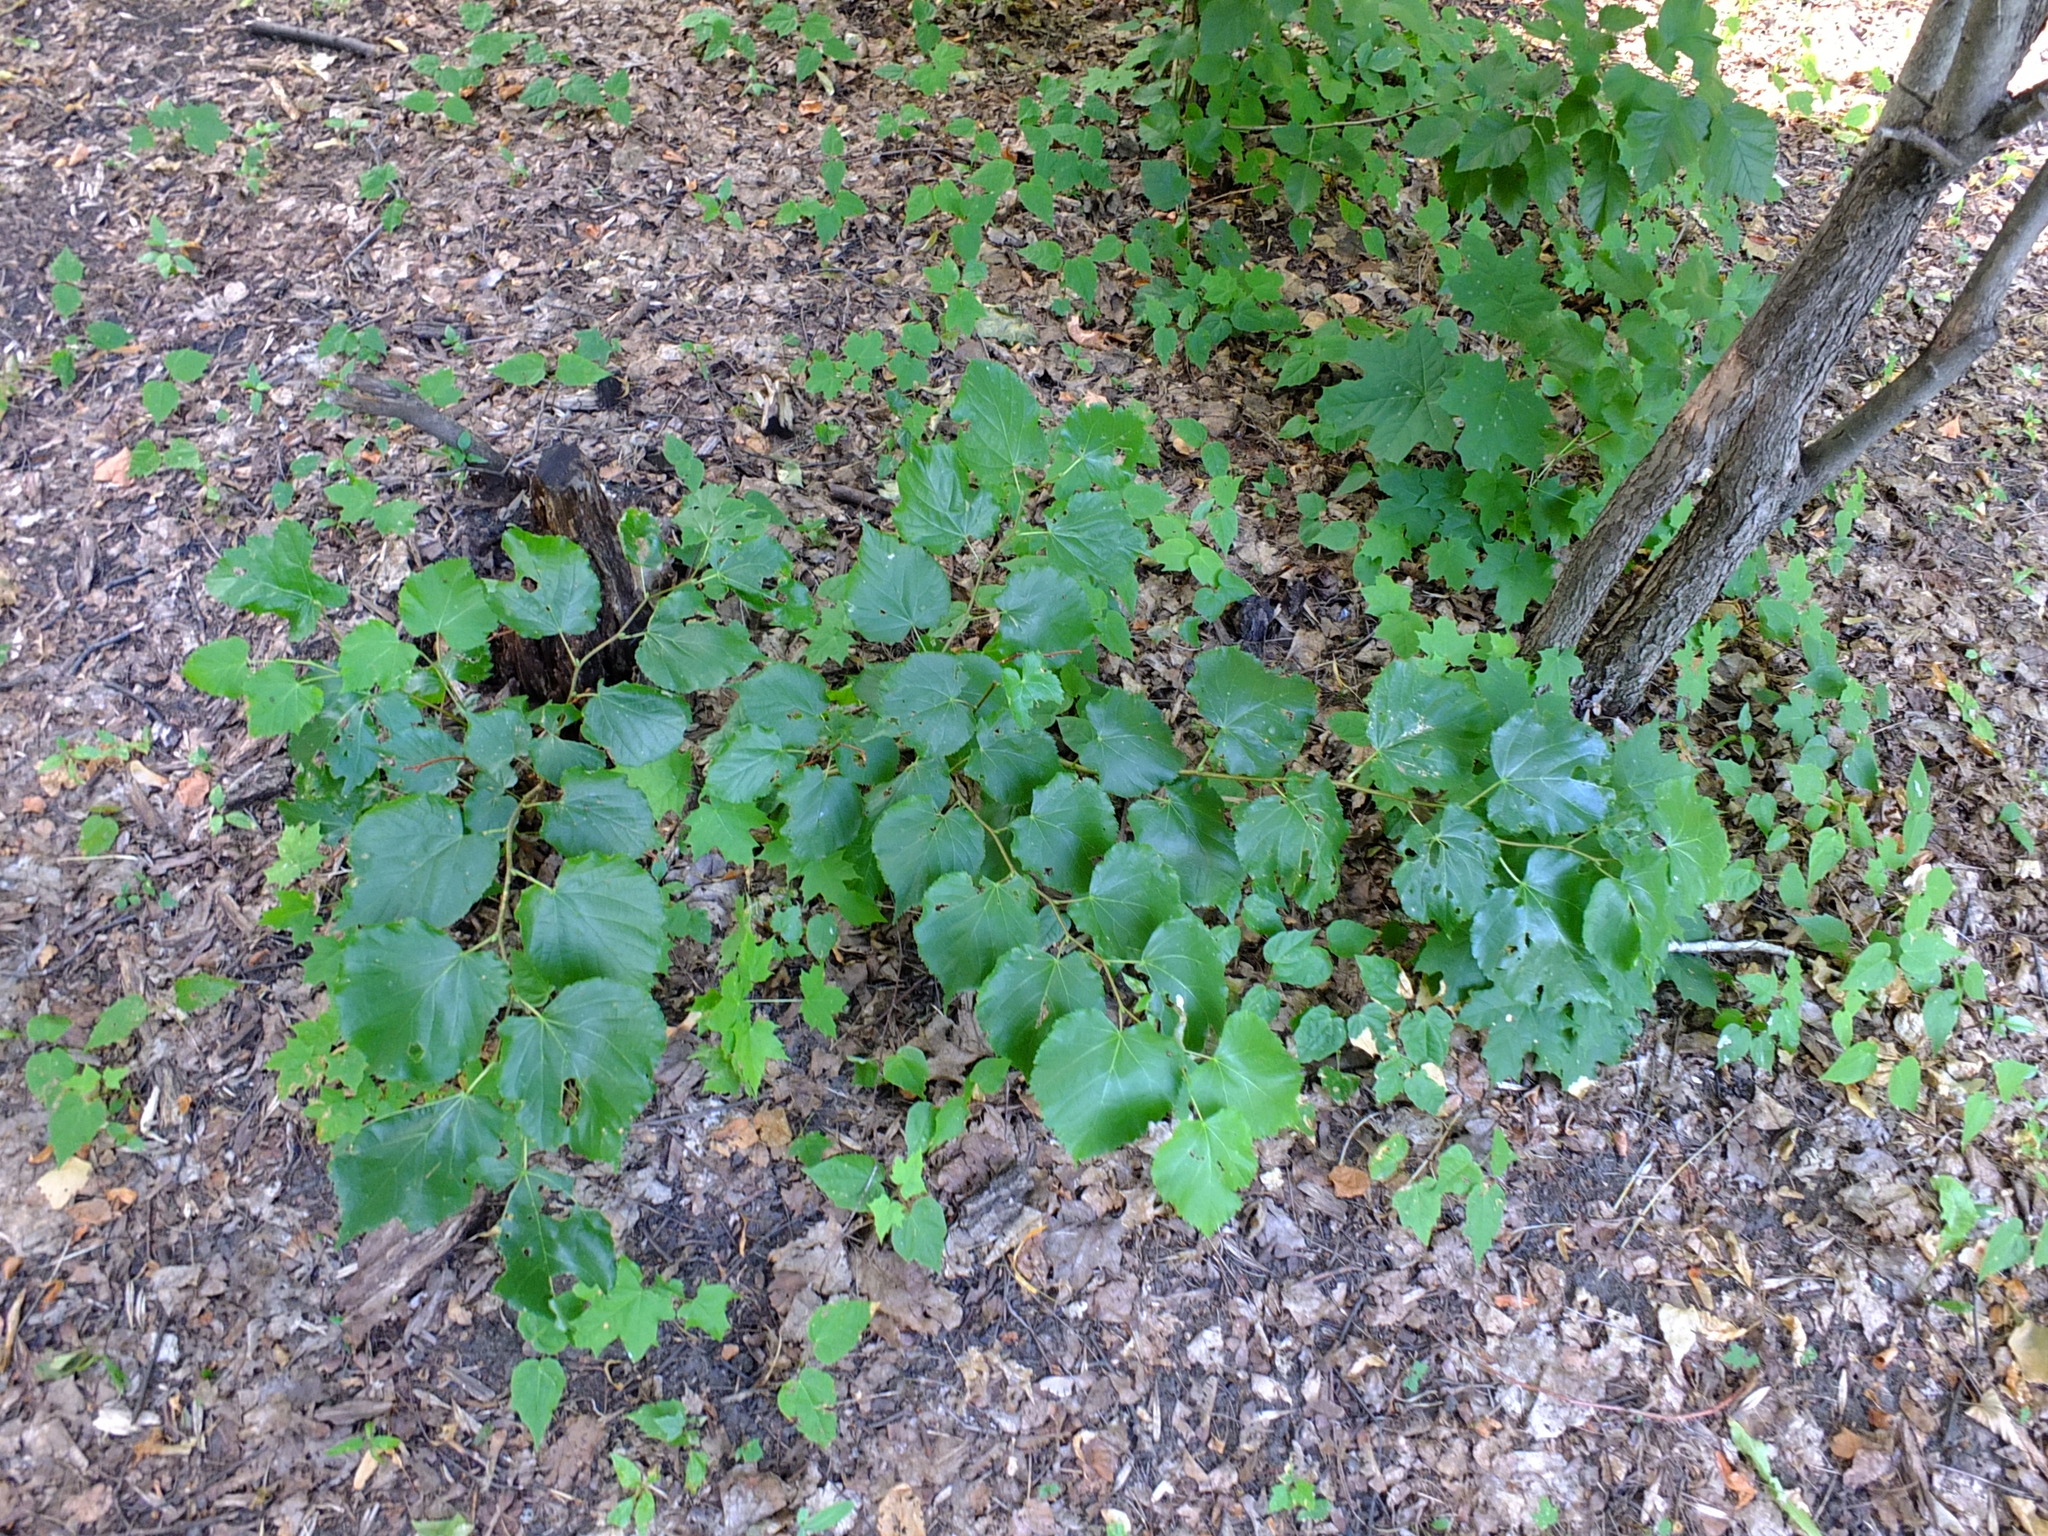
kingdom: Plantae
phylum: Tracheophyta
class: Magnoliopsida
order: Malvales
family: Malvaceae
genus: Tilia
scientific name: Tilia cordata
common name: Small-leaved lime
